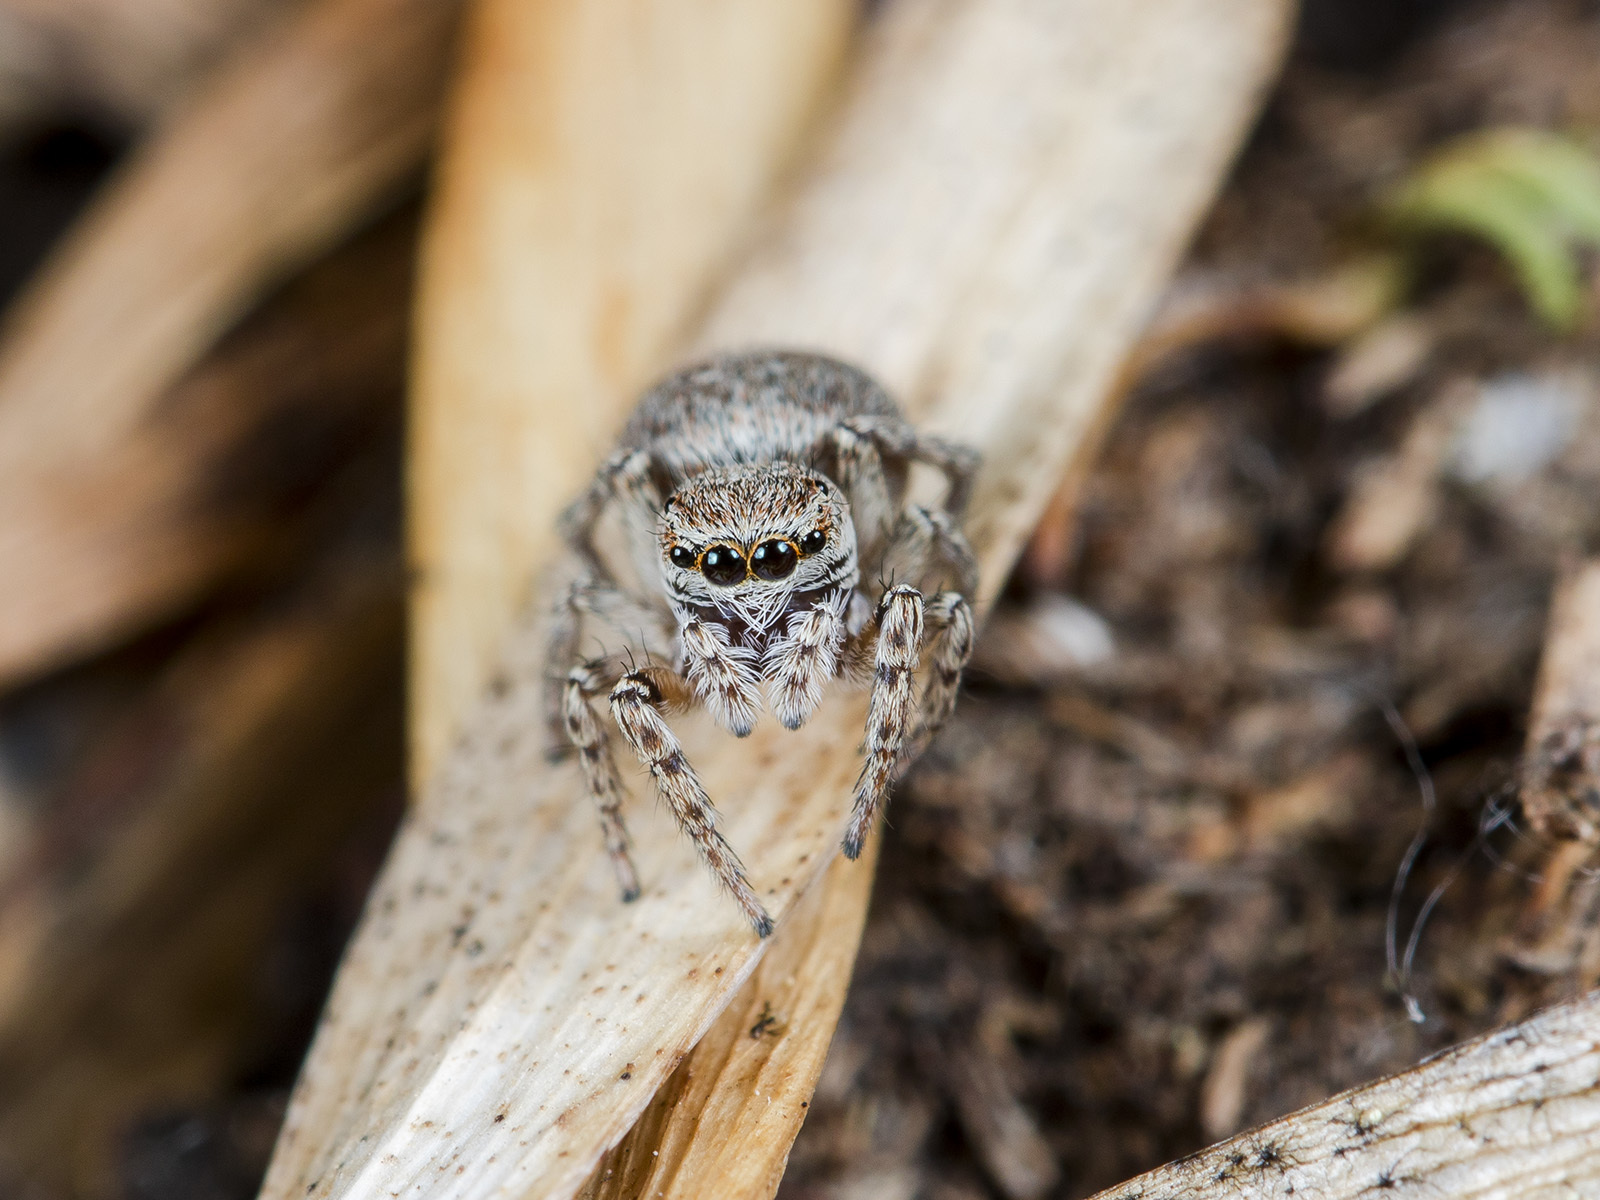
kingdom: Animalia
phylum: Arthropoda
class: Arachnida
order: Araneae
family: Salticidae
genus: Attulus
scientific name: Attulus mirandus
